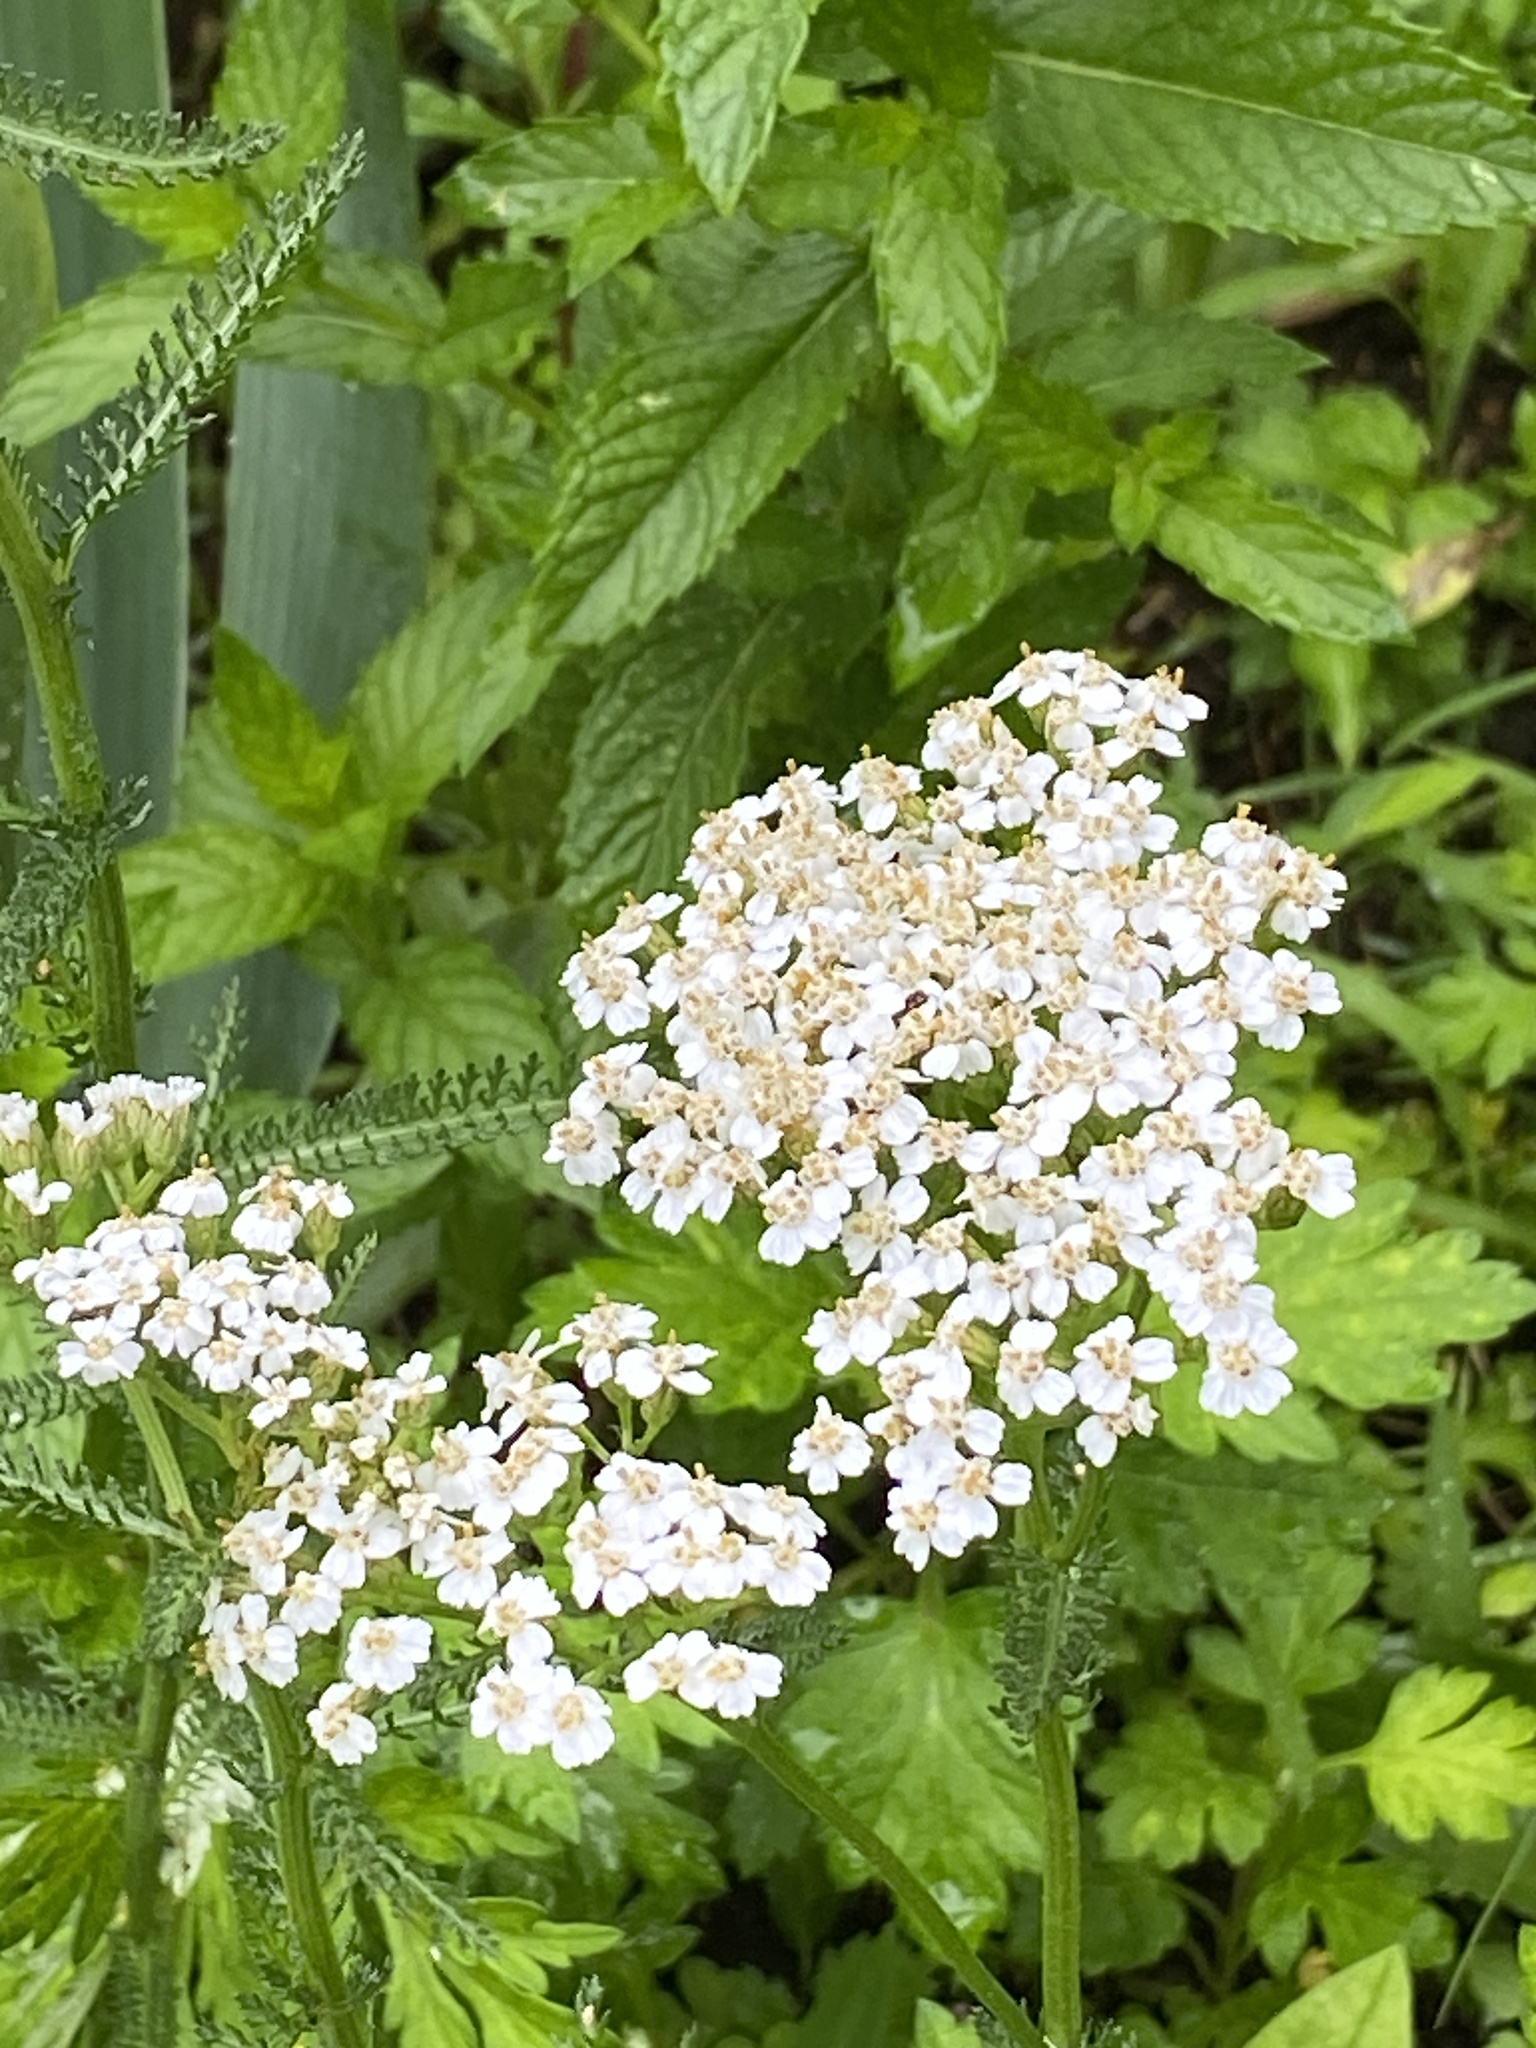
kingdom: Plantae
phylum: Tracheophyta
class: Magnoliopsida
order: Asterales
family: Asteraceae
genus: Achillea
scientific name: Achillea millefolium
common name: Yarrow
